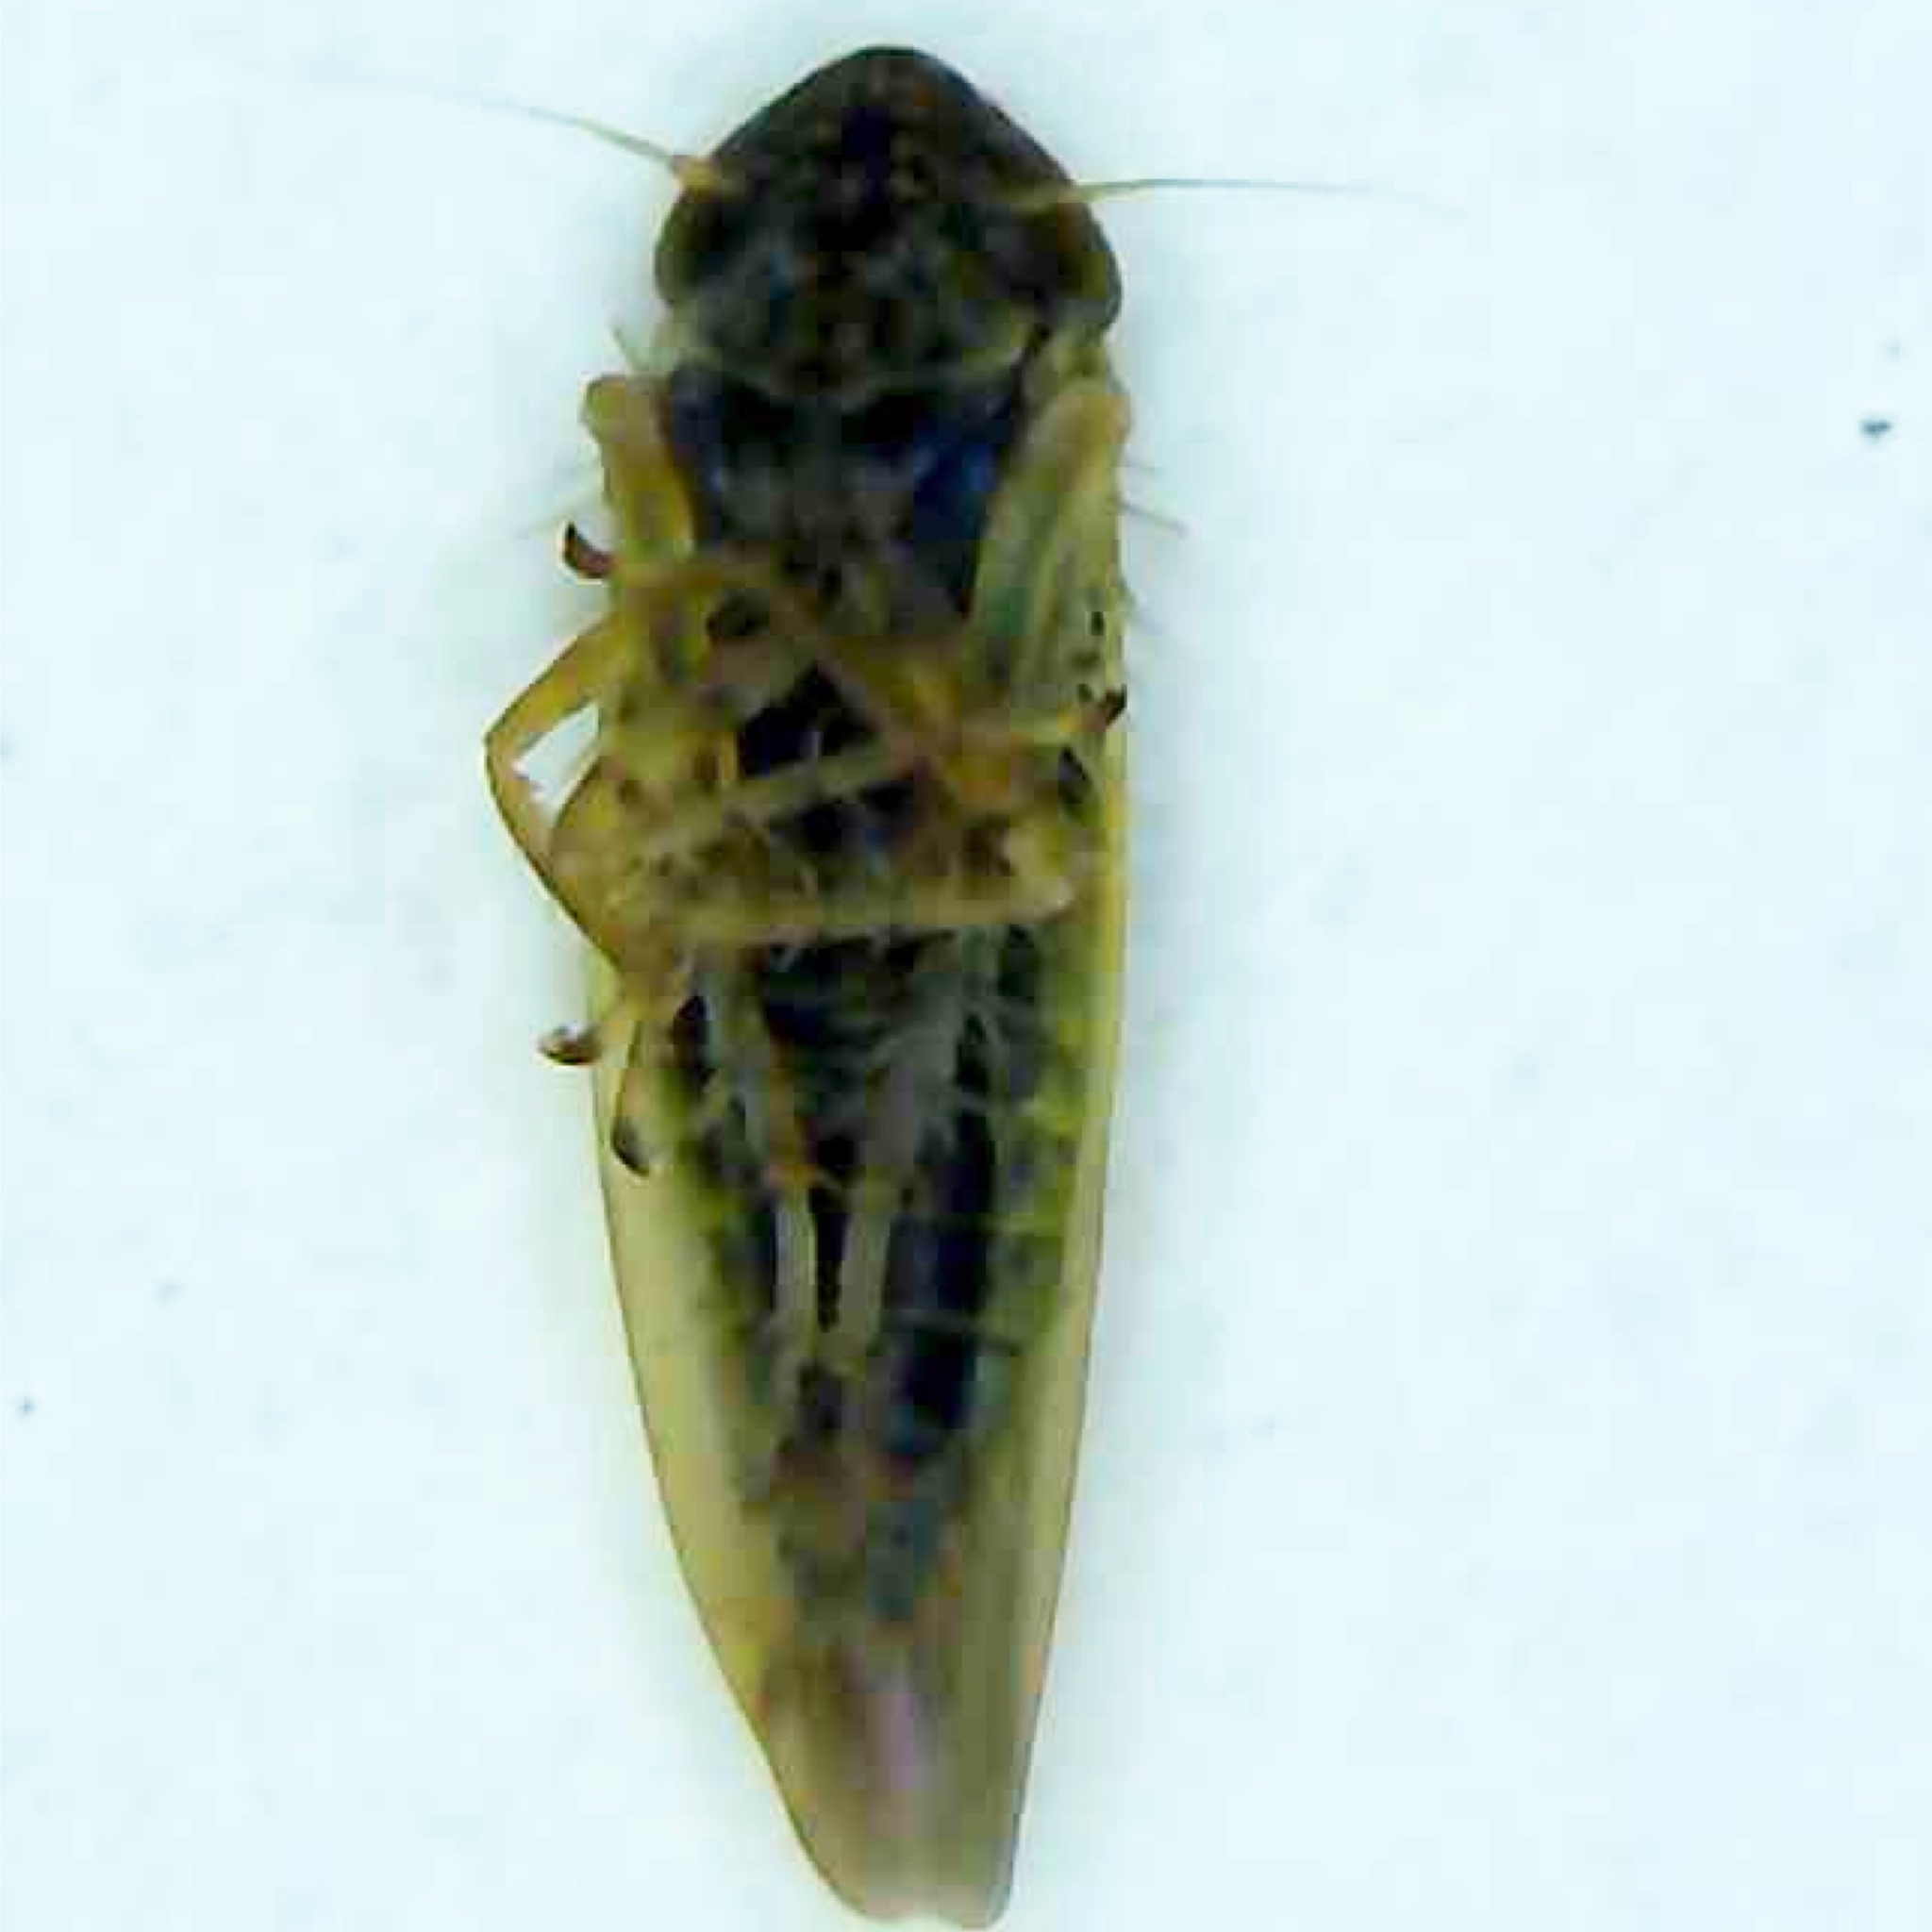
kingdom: Animalia
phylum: Arthropoda
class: Insecta
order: Hemiptera
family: Cicadellidae
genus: Graminella
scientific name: Graminella nigrifrons
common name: Blackfaced leafhopper
